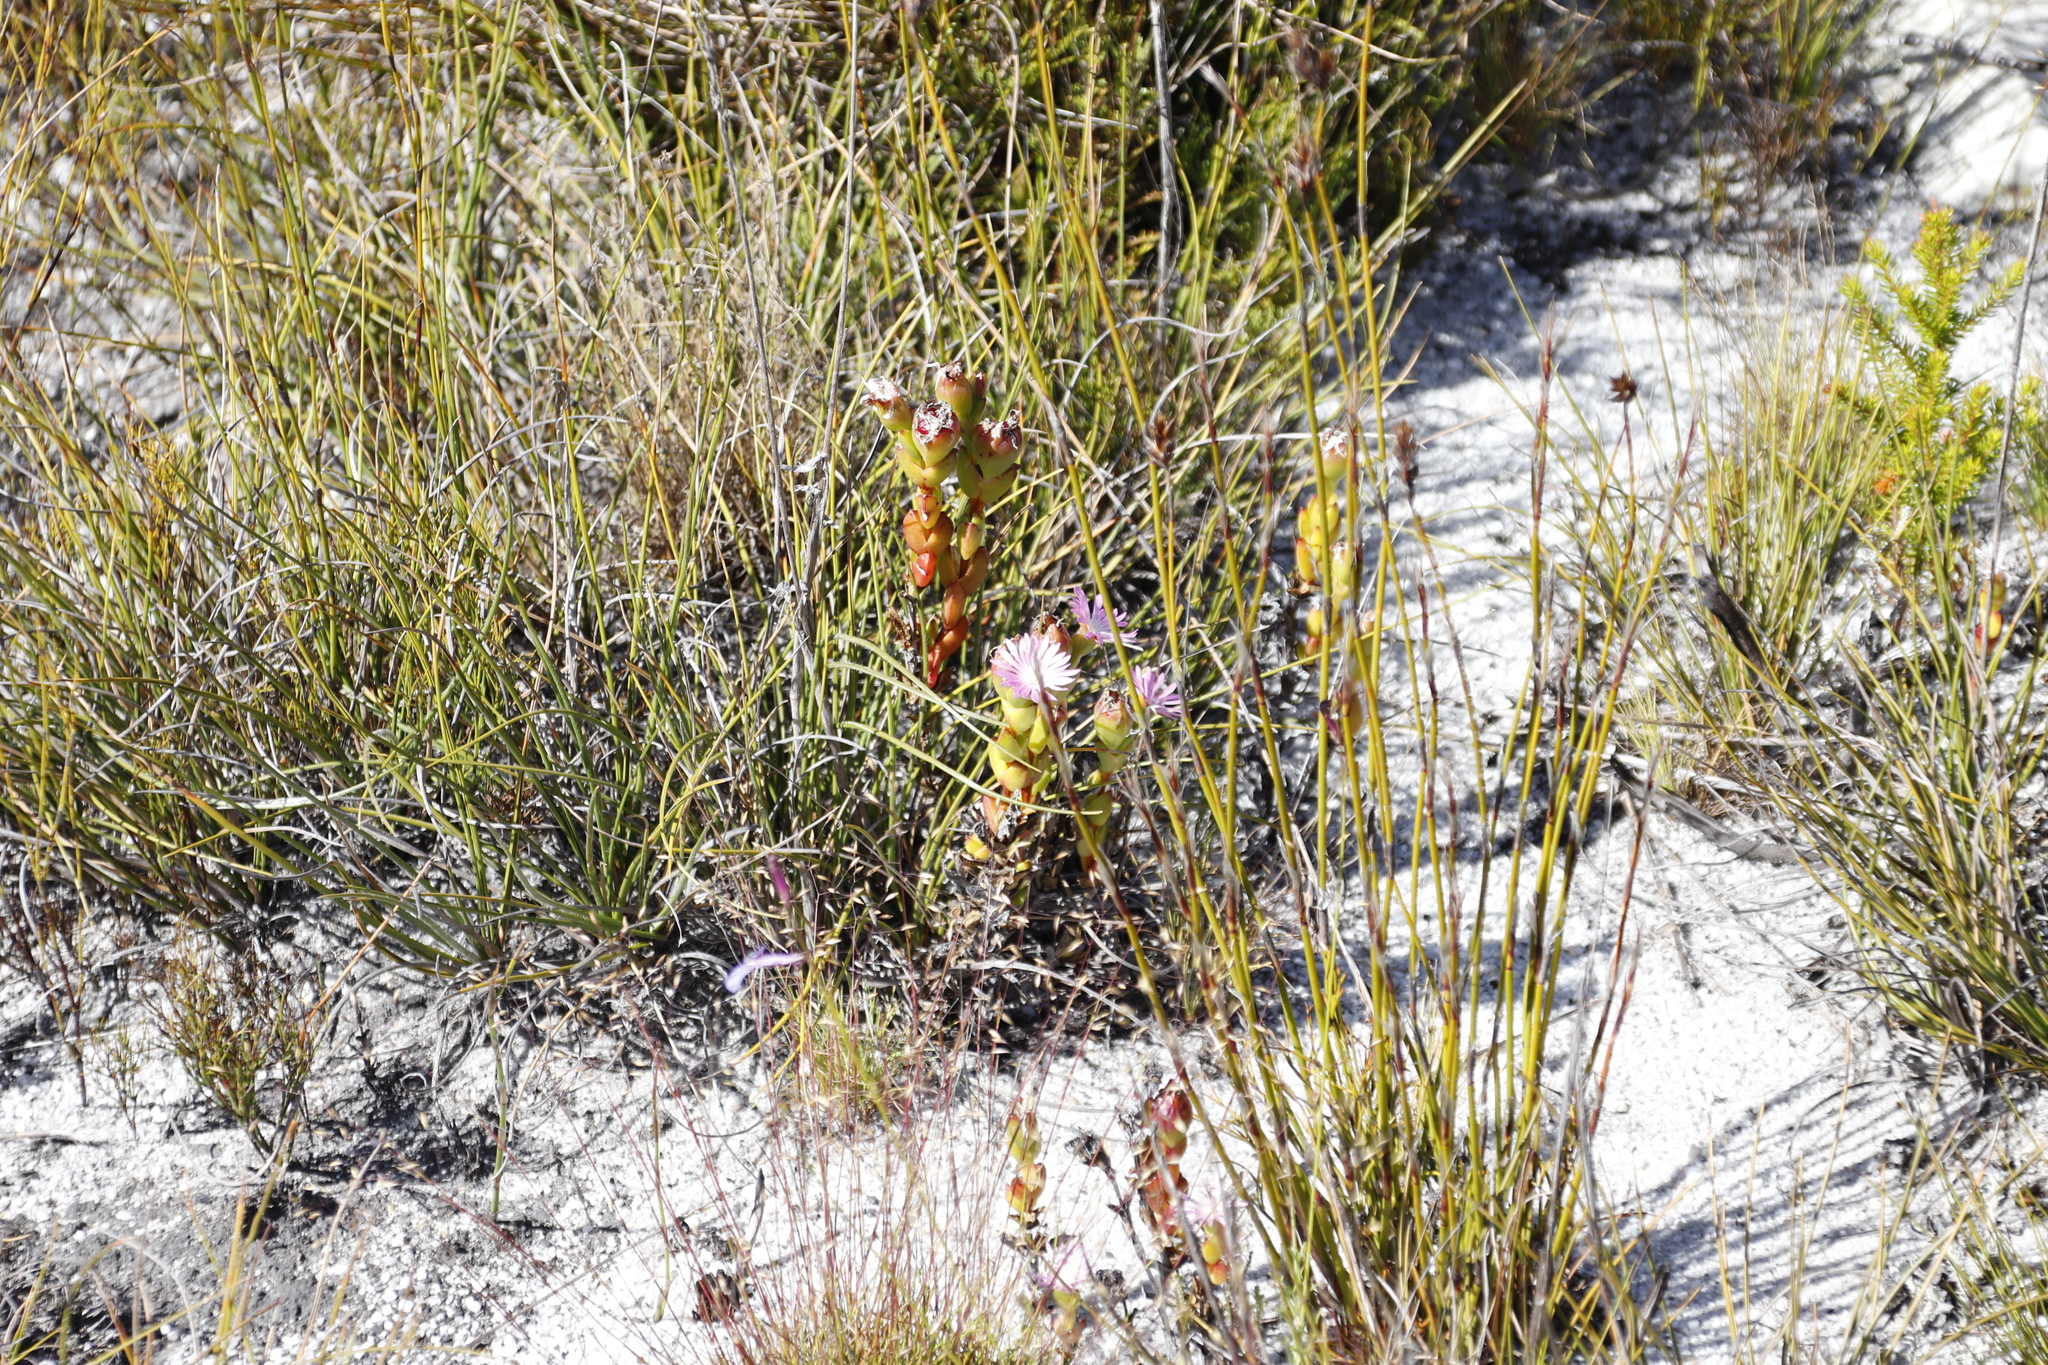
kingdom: Plantae
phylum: Tracheophyta
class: Magnoliopsida
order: Caryophyllales
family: Aizoaceae
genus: Erepsia
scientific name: Erepsia inclaudens
